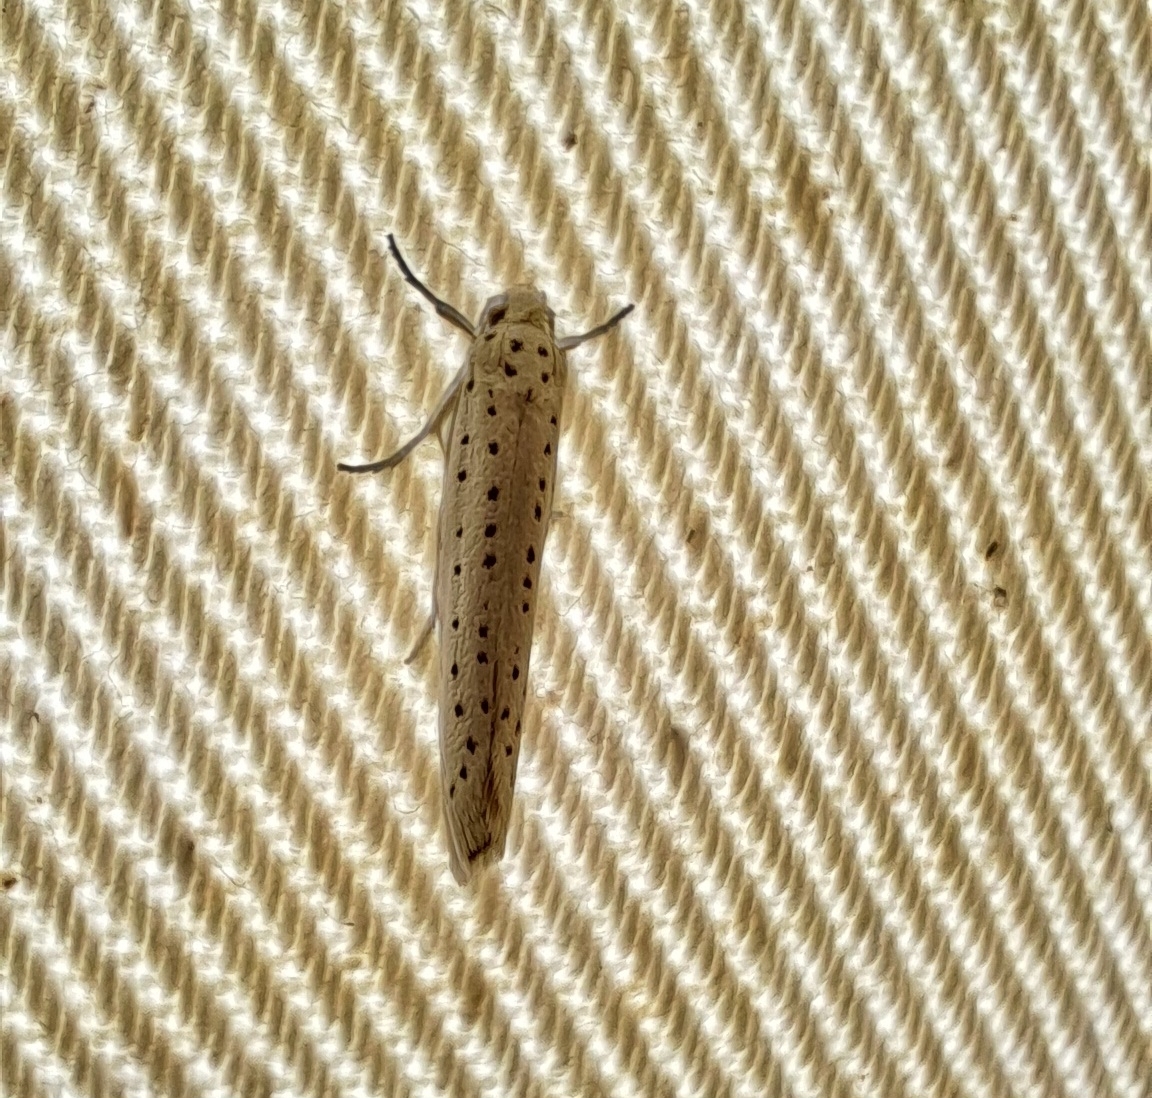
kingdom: Animalia
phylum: Arthropoda
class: Insecta
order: Lepidoptera
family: Yponomeutidae
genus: Yponomeuta
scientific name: Yponomeuta evonymella
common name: Bird-cherry ermine
